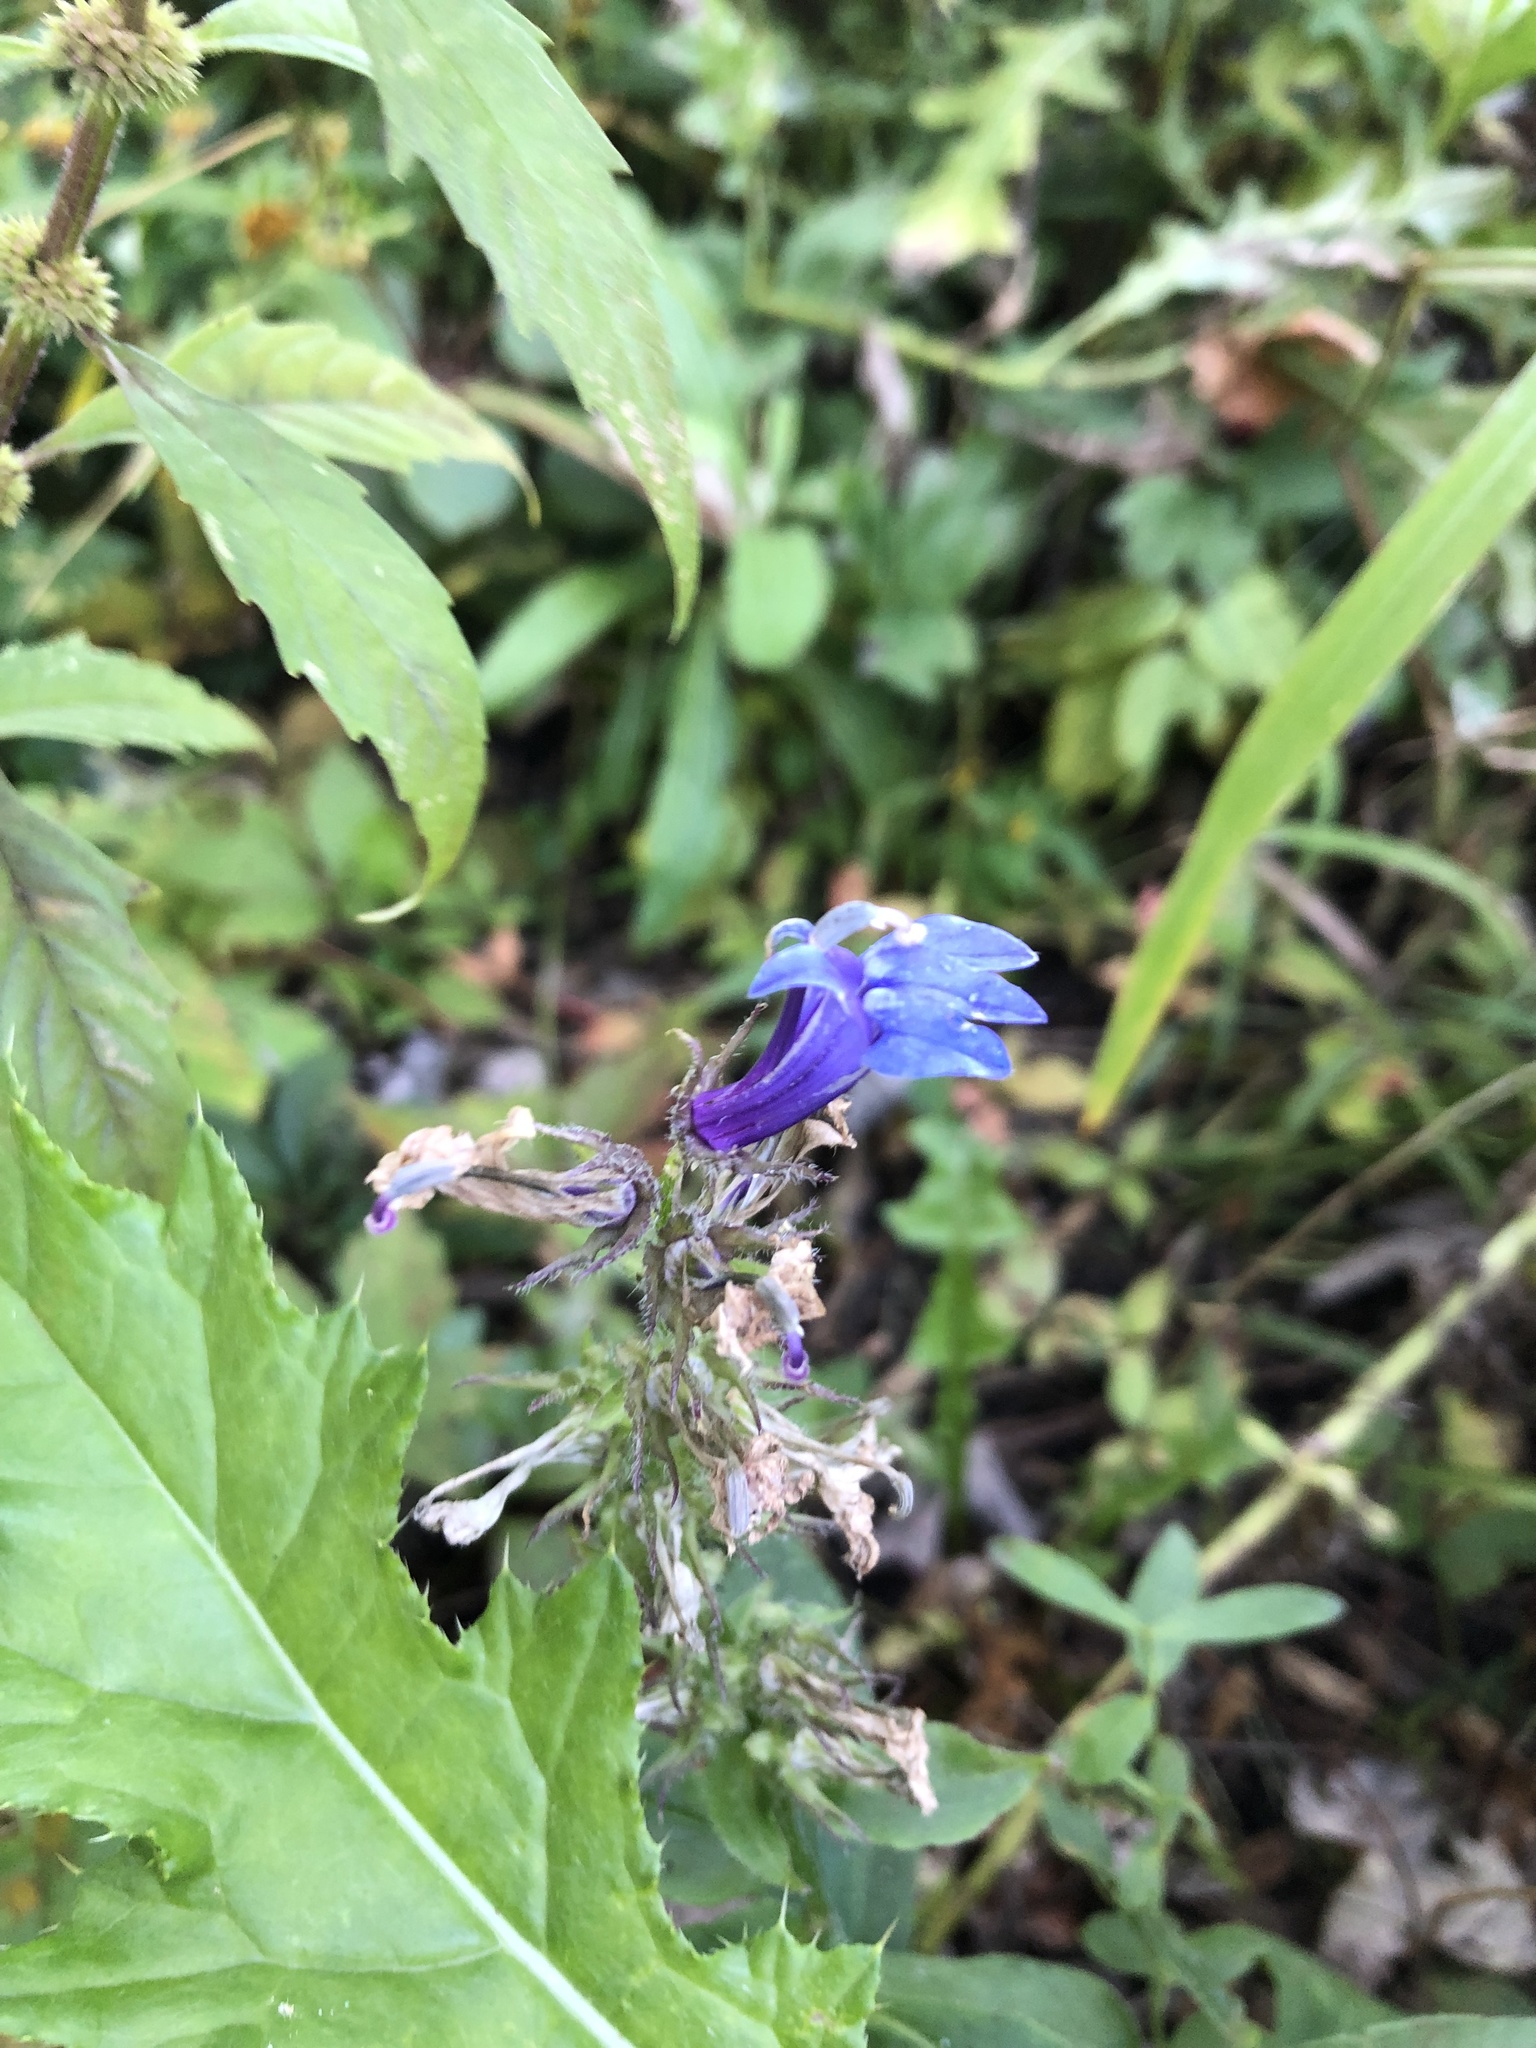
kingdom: Plantae
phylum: Tracheophyta
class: Magnoliopsida
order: Asterales
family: Campanulaceae
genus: Lobelia
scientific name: Lobelia siphilitica
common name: Great lobelia
